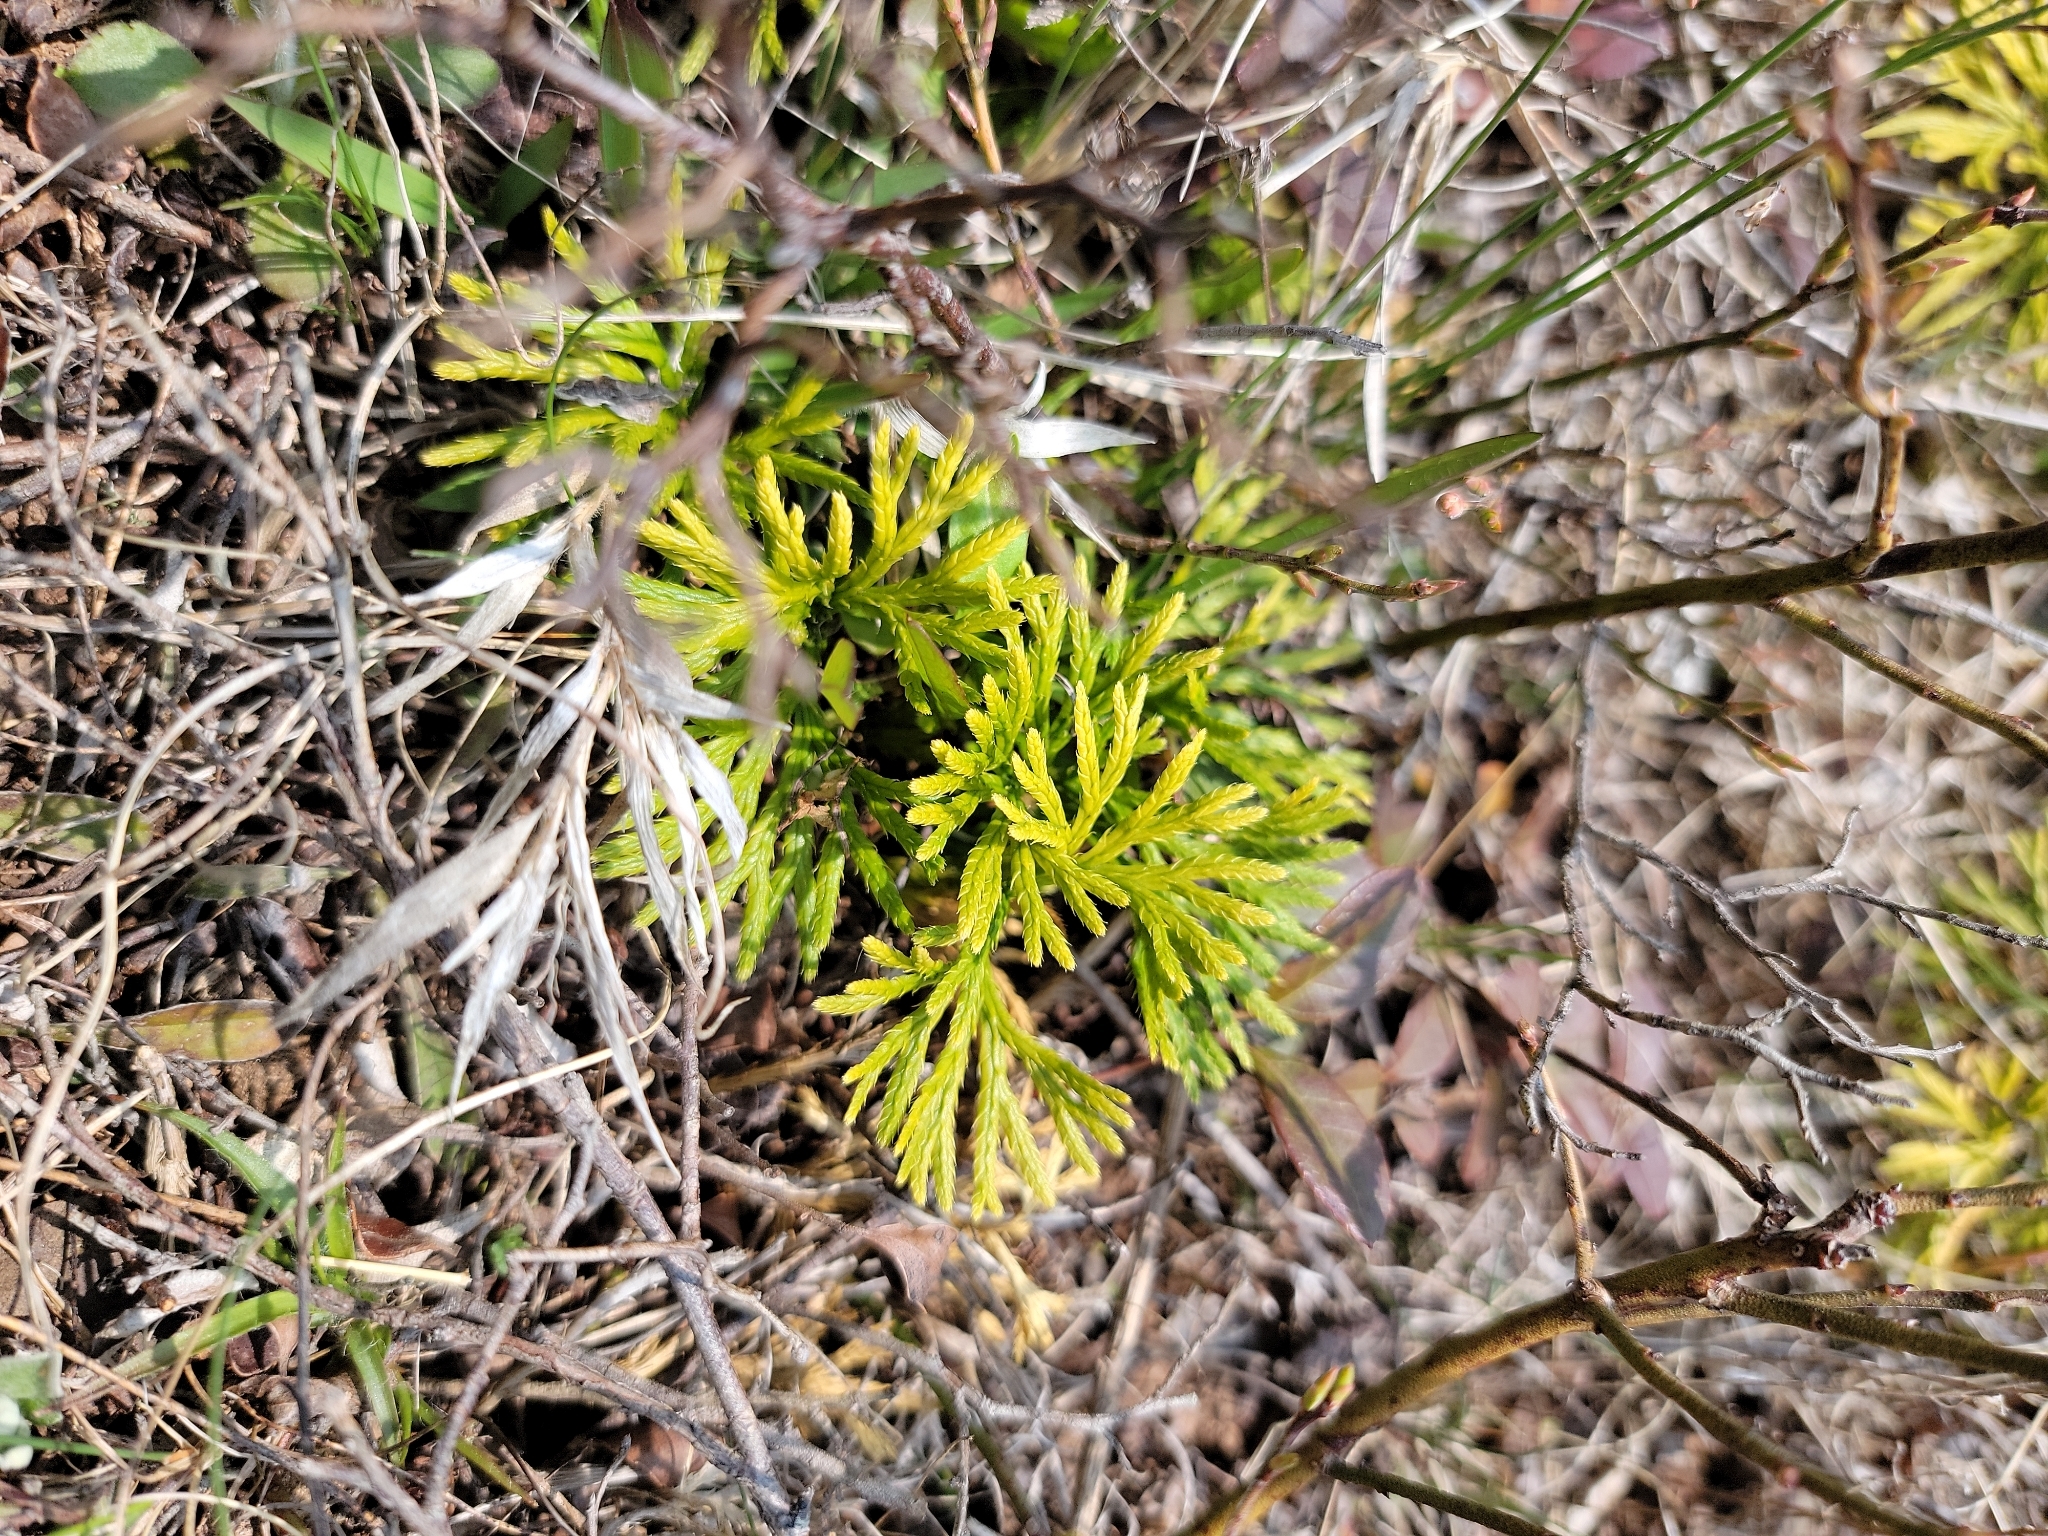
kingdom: Plantae
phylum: Tracheophyta
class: Lycopodiopsida
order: Lycopodiales
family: Lycopodiaceae
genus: Diphasiastrum
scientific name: Diphasiastrum digitatum
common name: Southern running-pine
